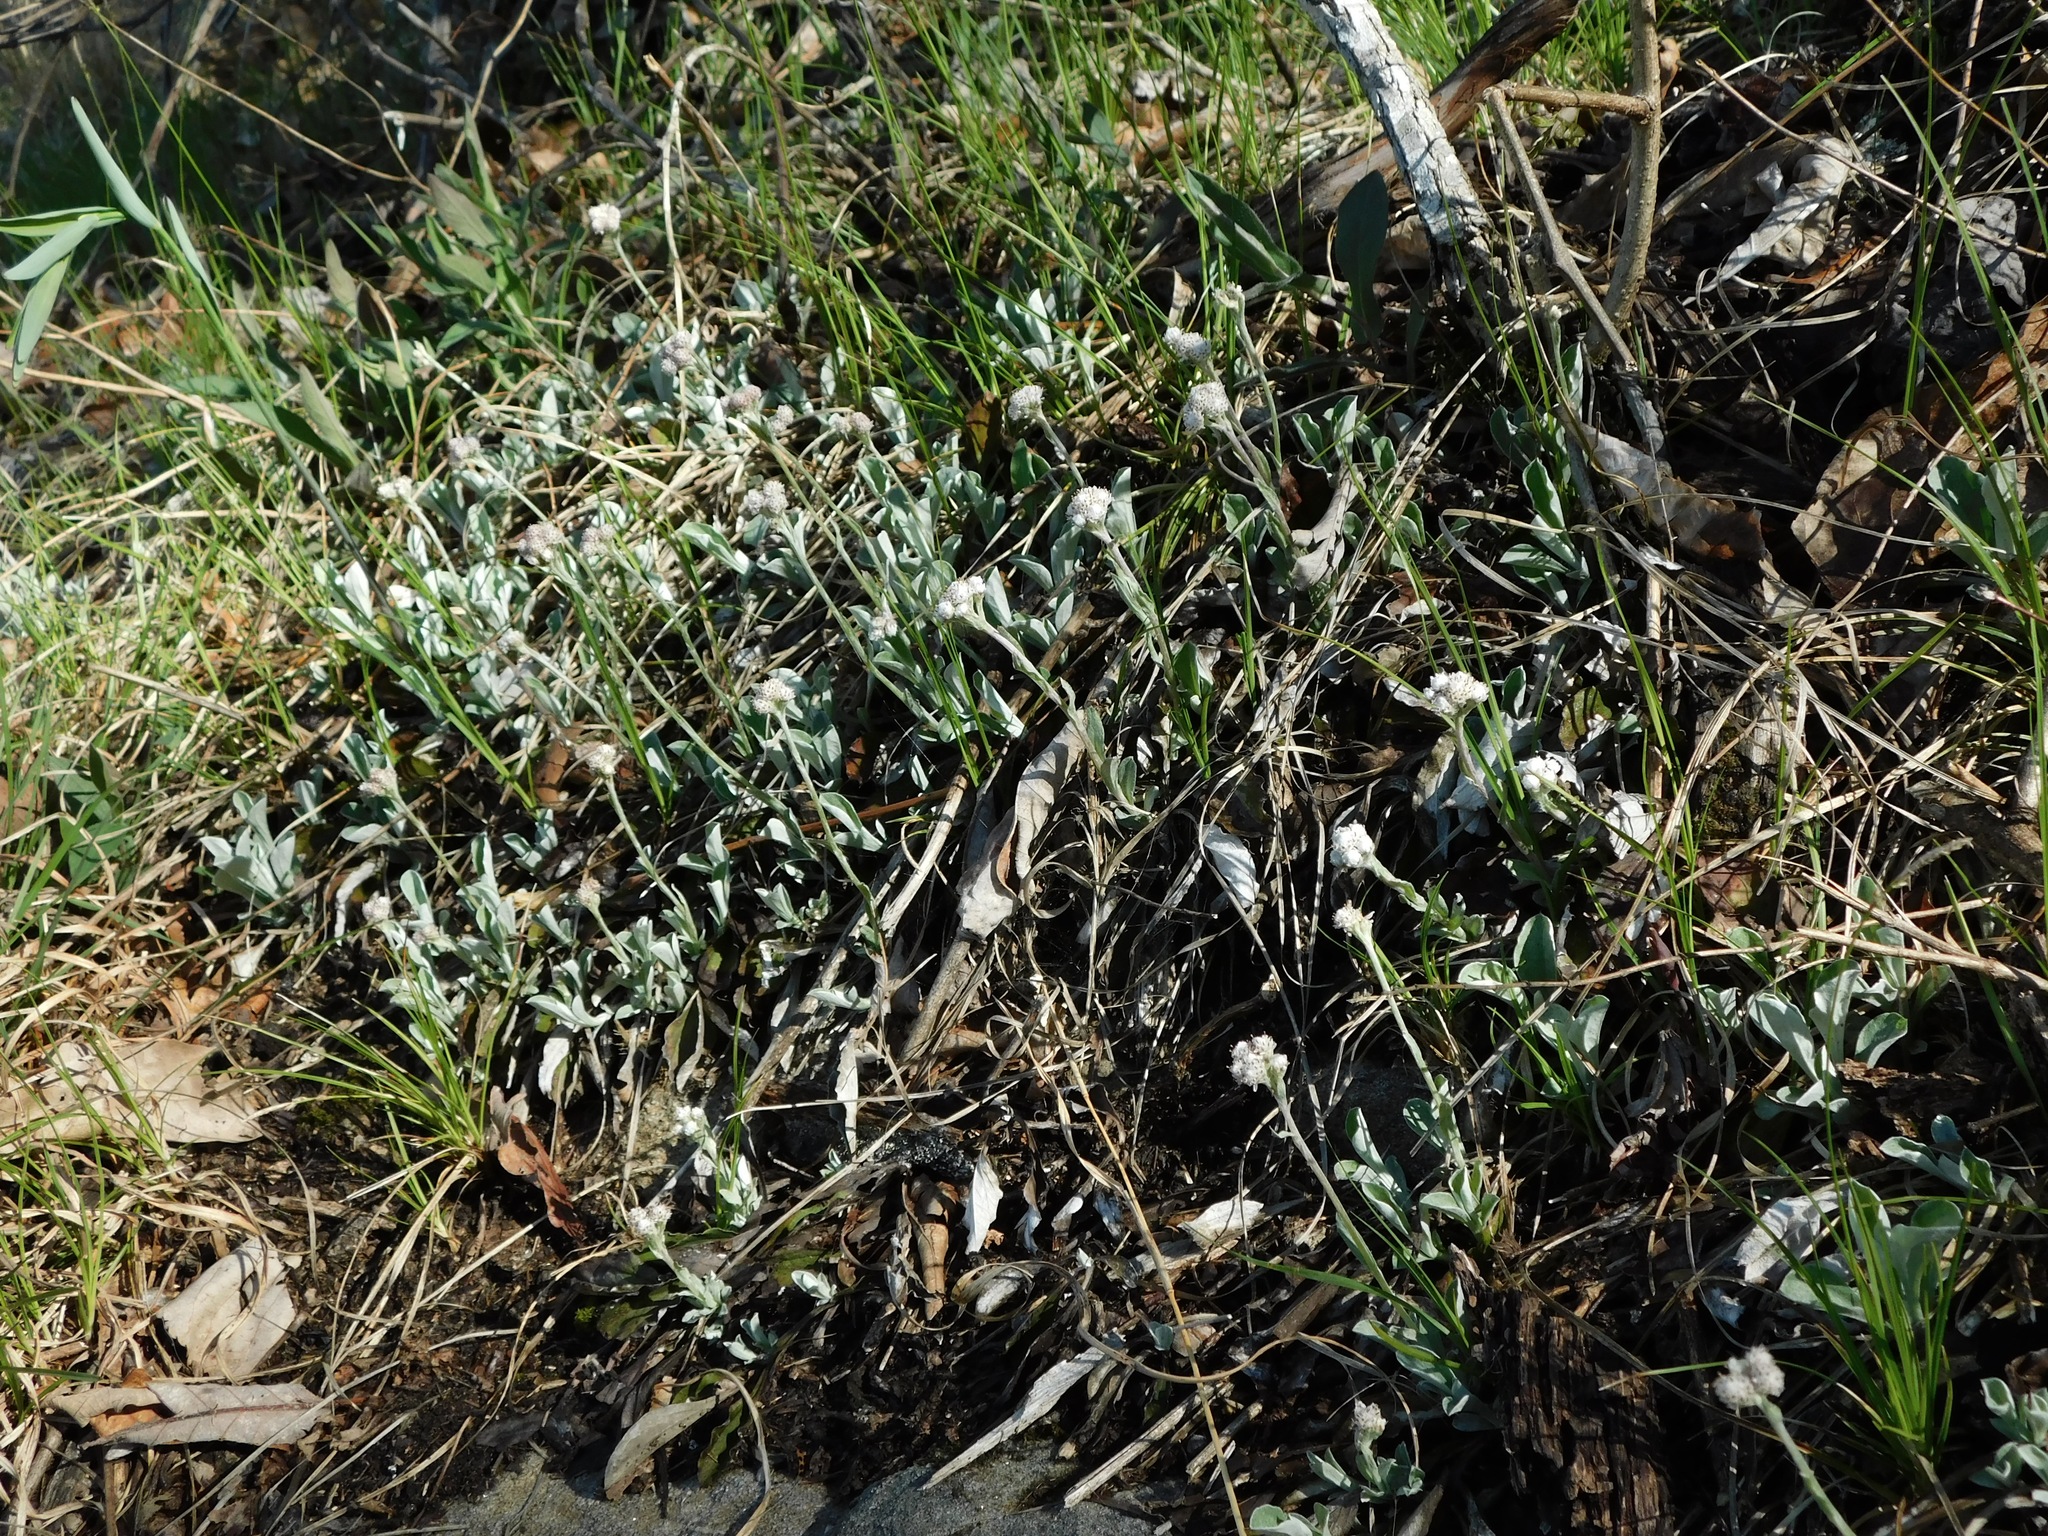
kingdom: Plantae
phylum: Tracheophyta
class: Magnoliopsida
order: Asterales
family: Asteraceae
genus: Antennaria
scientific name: Antennaria plantaginifolia
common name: Plantain-leaved pussytoes
